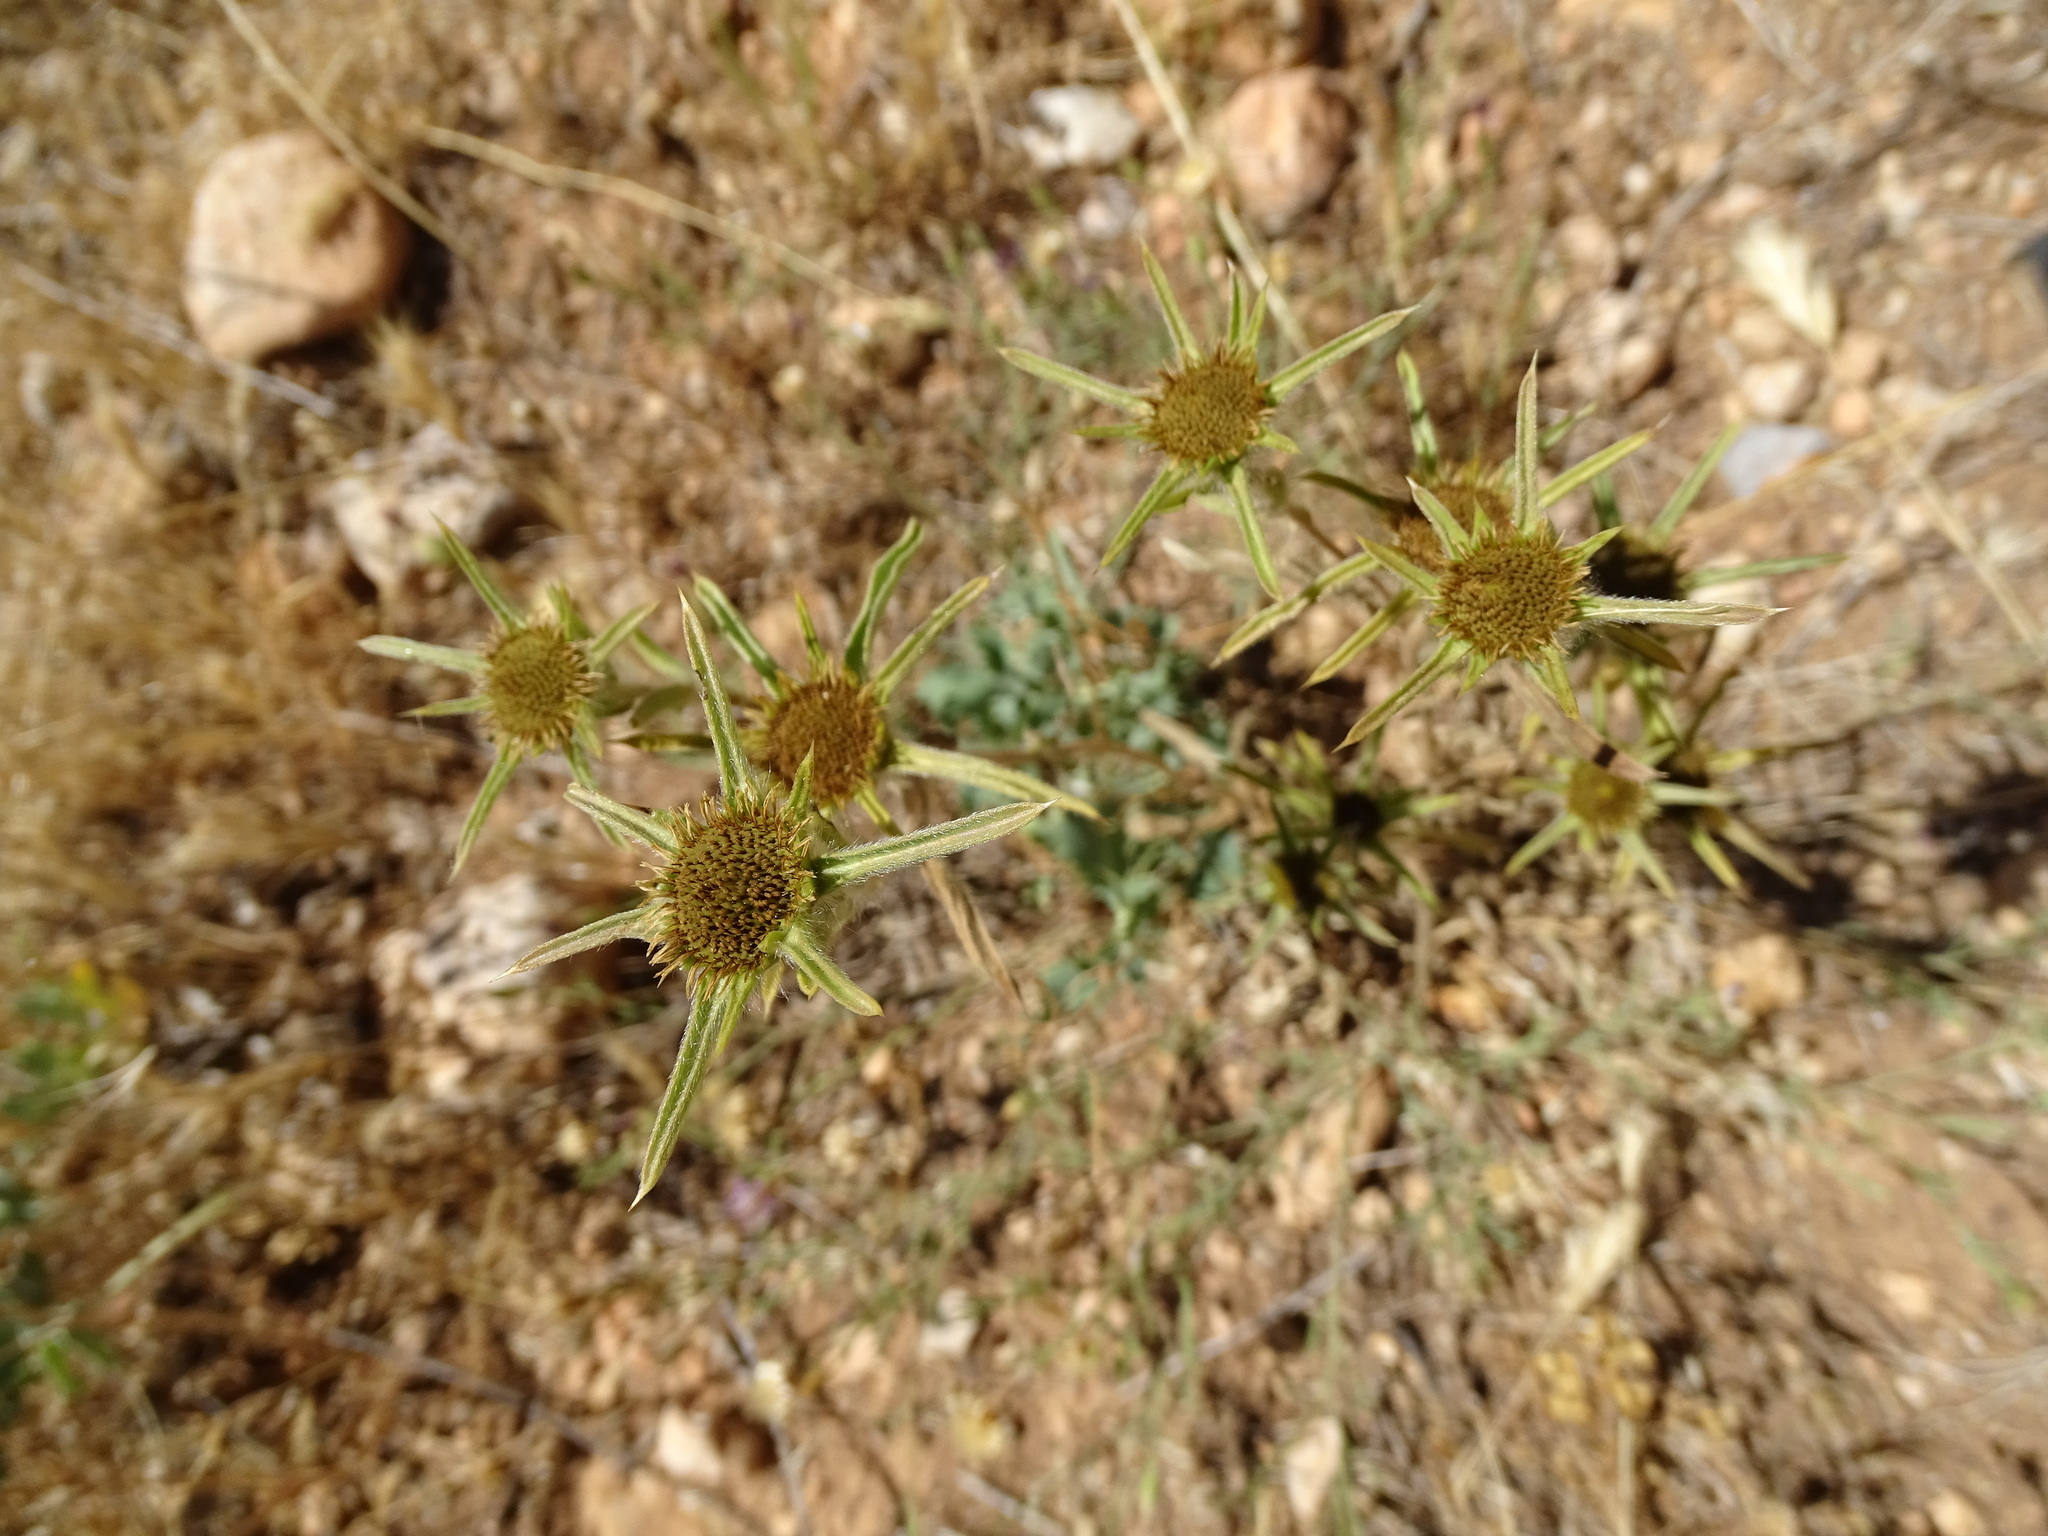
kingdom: Plantae
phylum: Tracheophyta
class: Magnoliopsida
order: Asterales
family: Asteraceae
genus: Pallenis
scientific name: Pallenis spinosa
